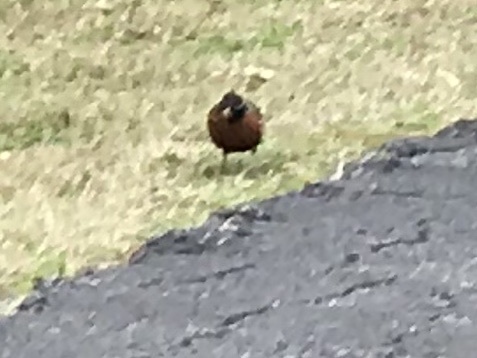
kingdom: Animalia
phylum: Chordata
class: Aves
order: Passeriformes
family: Turdidae
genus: Turdus
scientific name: Turdus migratorius
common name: American robin
